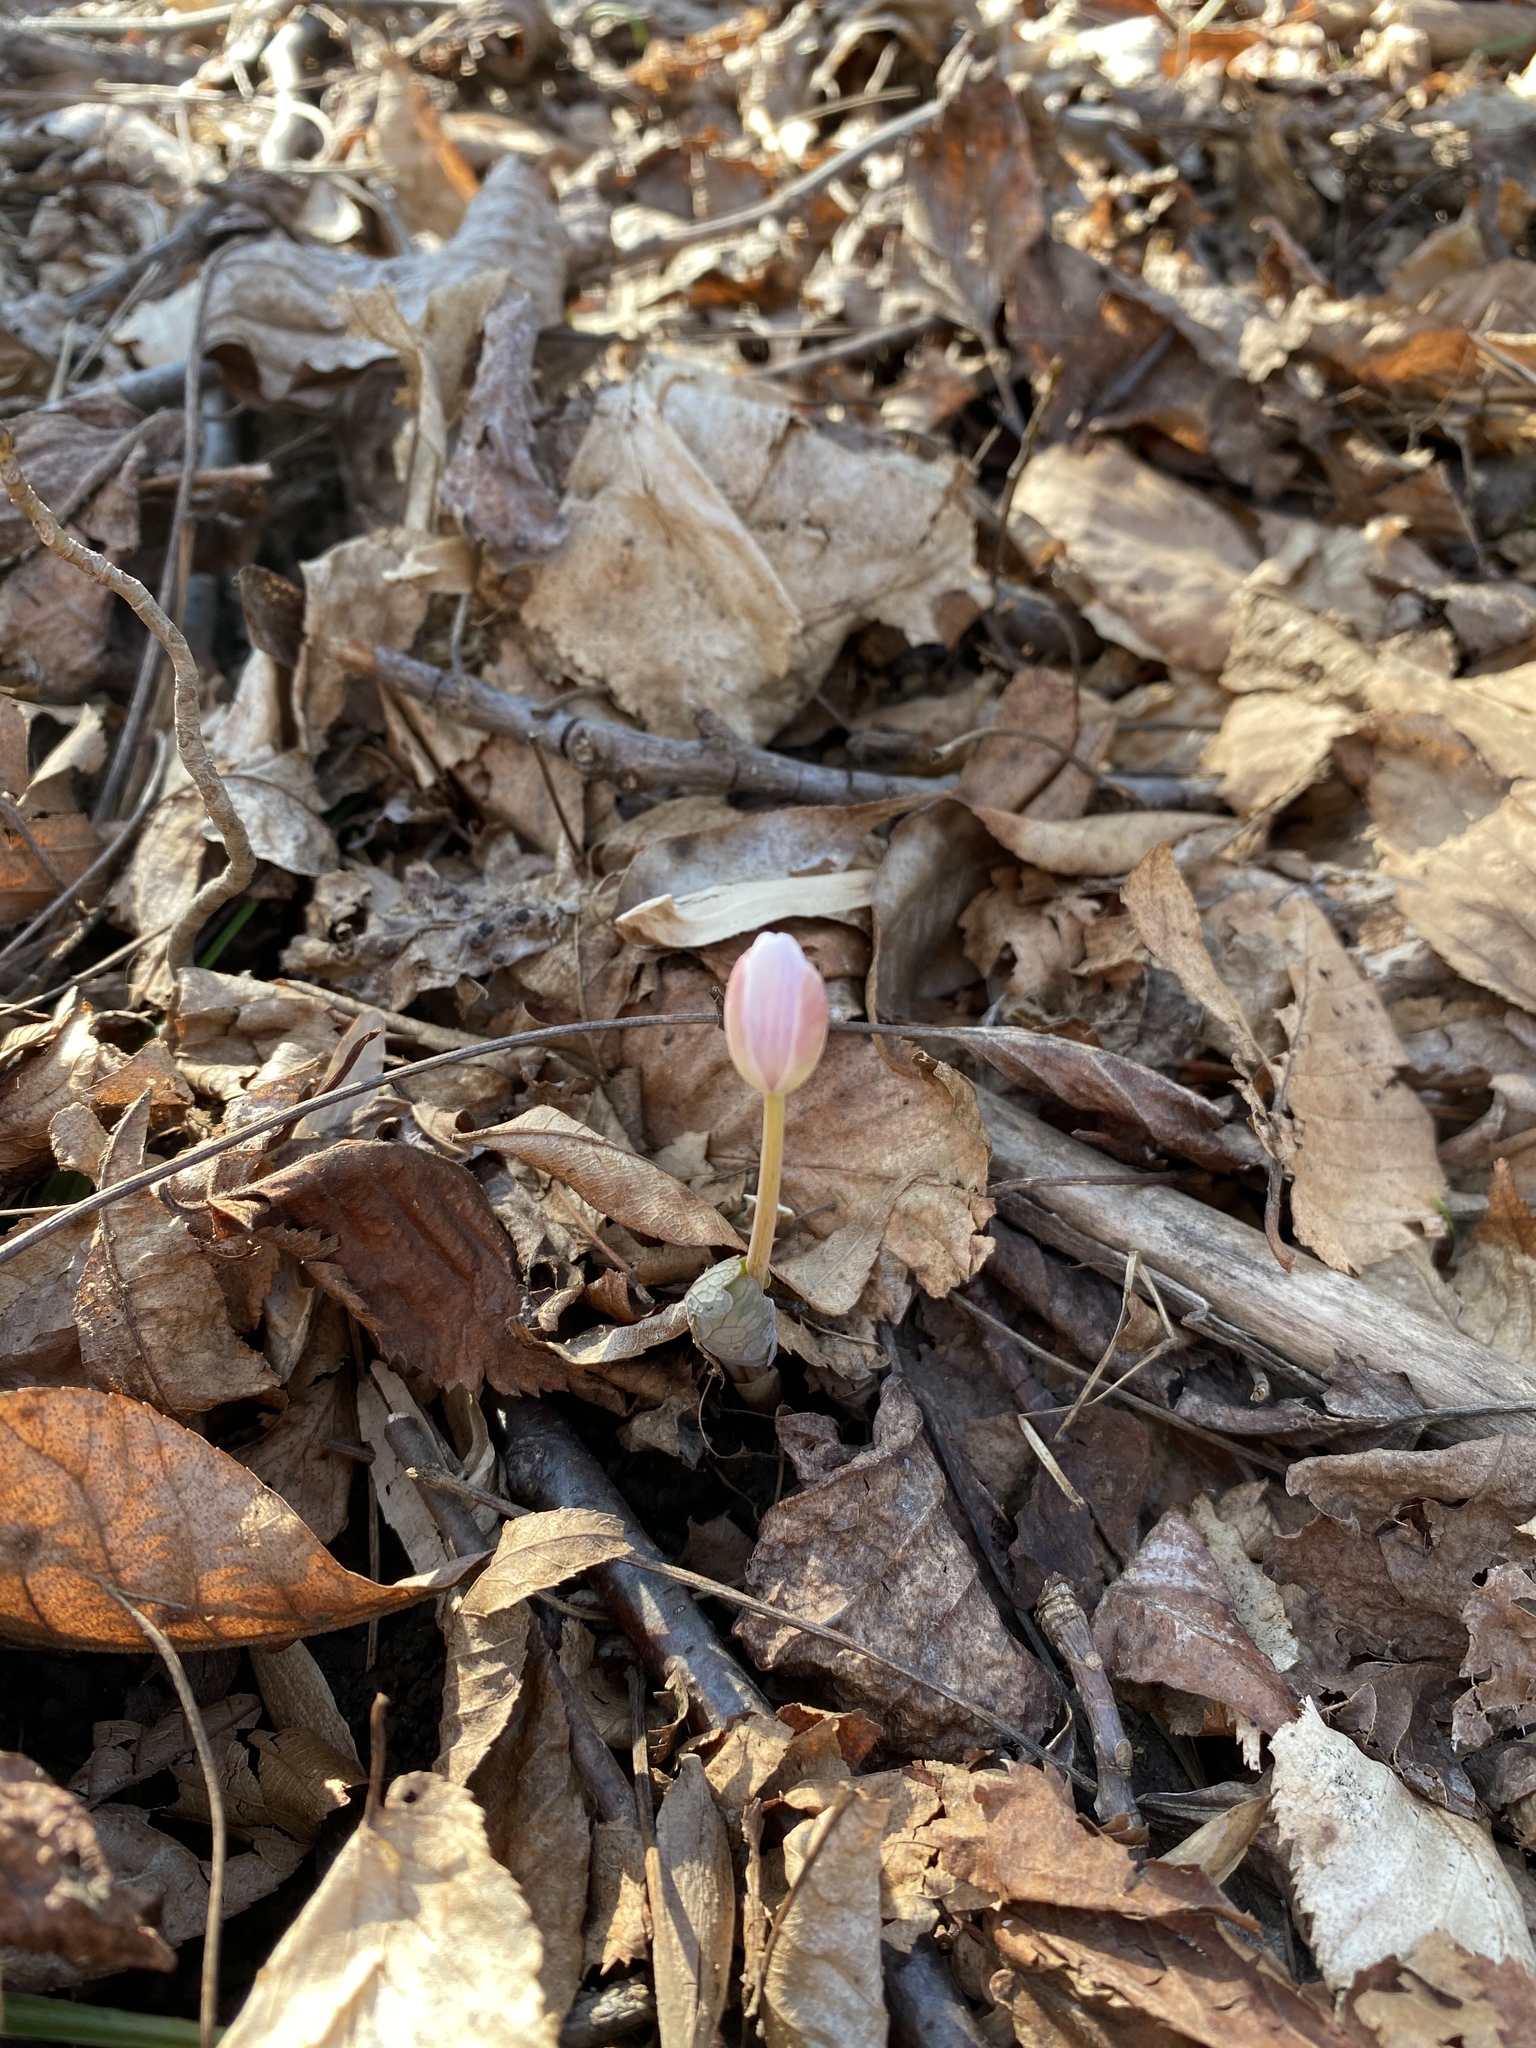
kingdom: Plantae
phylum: Tracheophyta
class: Magnoliopsida
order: Ranunculales
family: Papaveraceae
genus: Sanguinaria
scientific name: Sanguinaria canadensis
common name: Bloodroot
